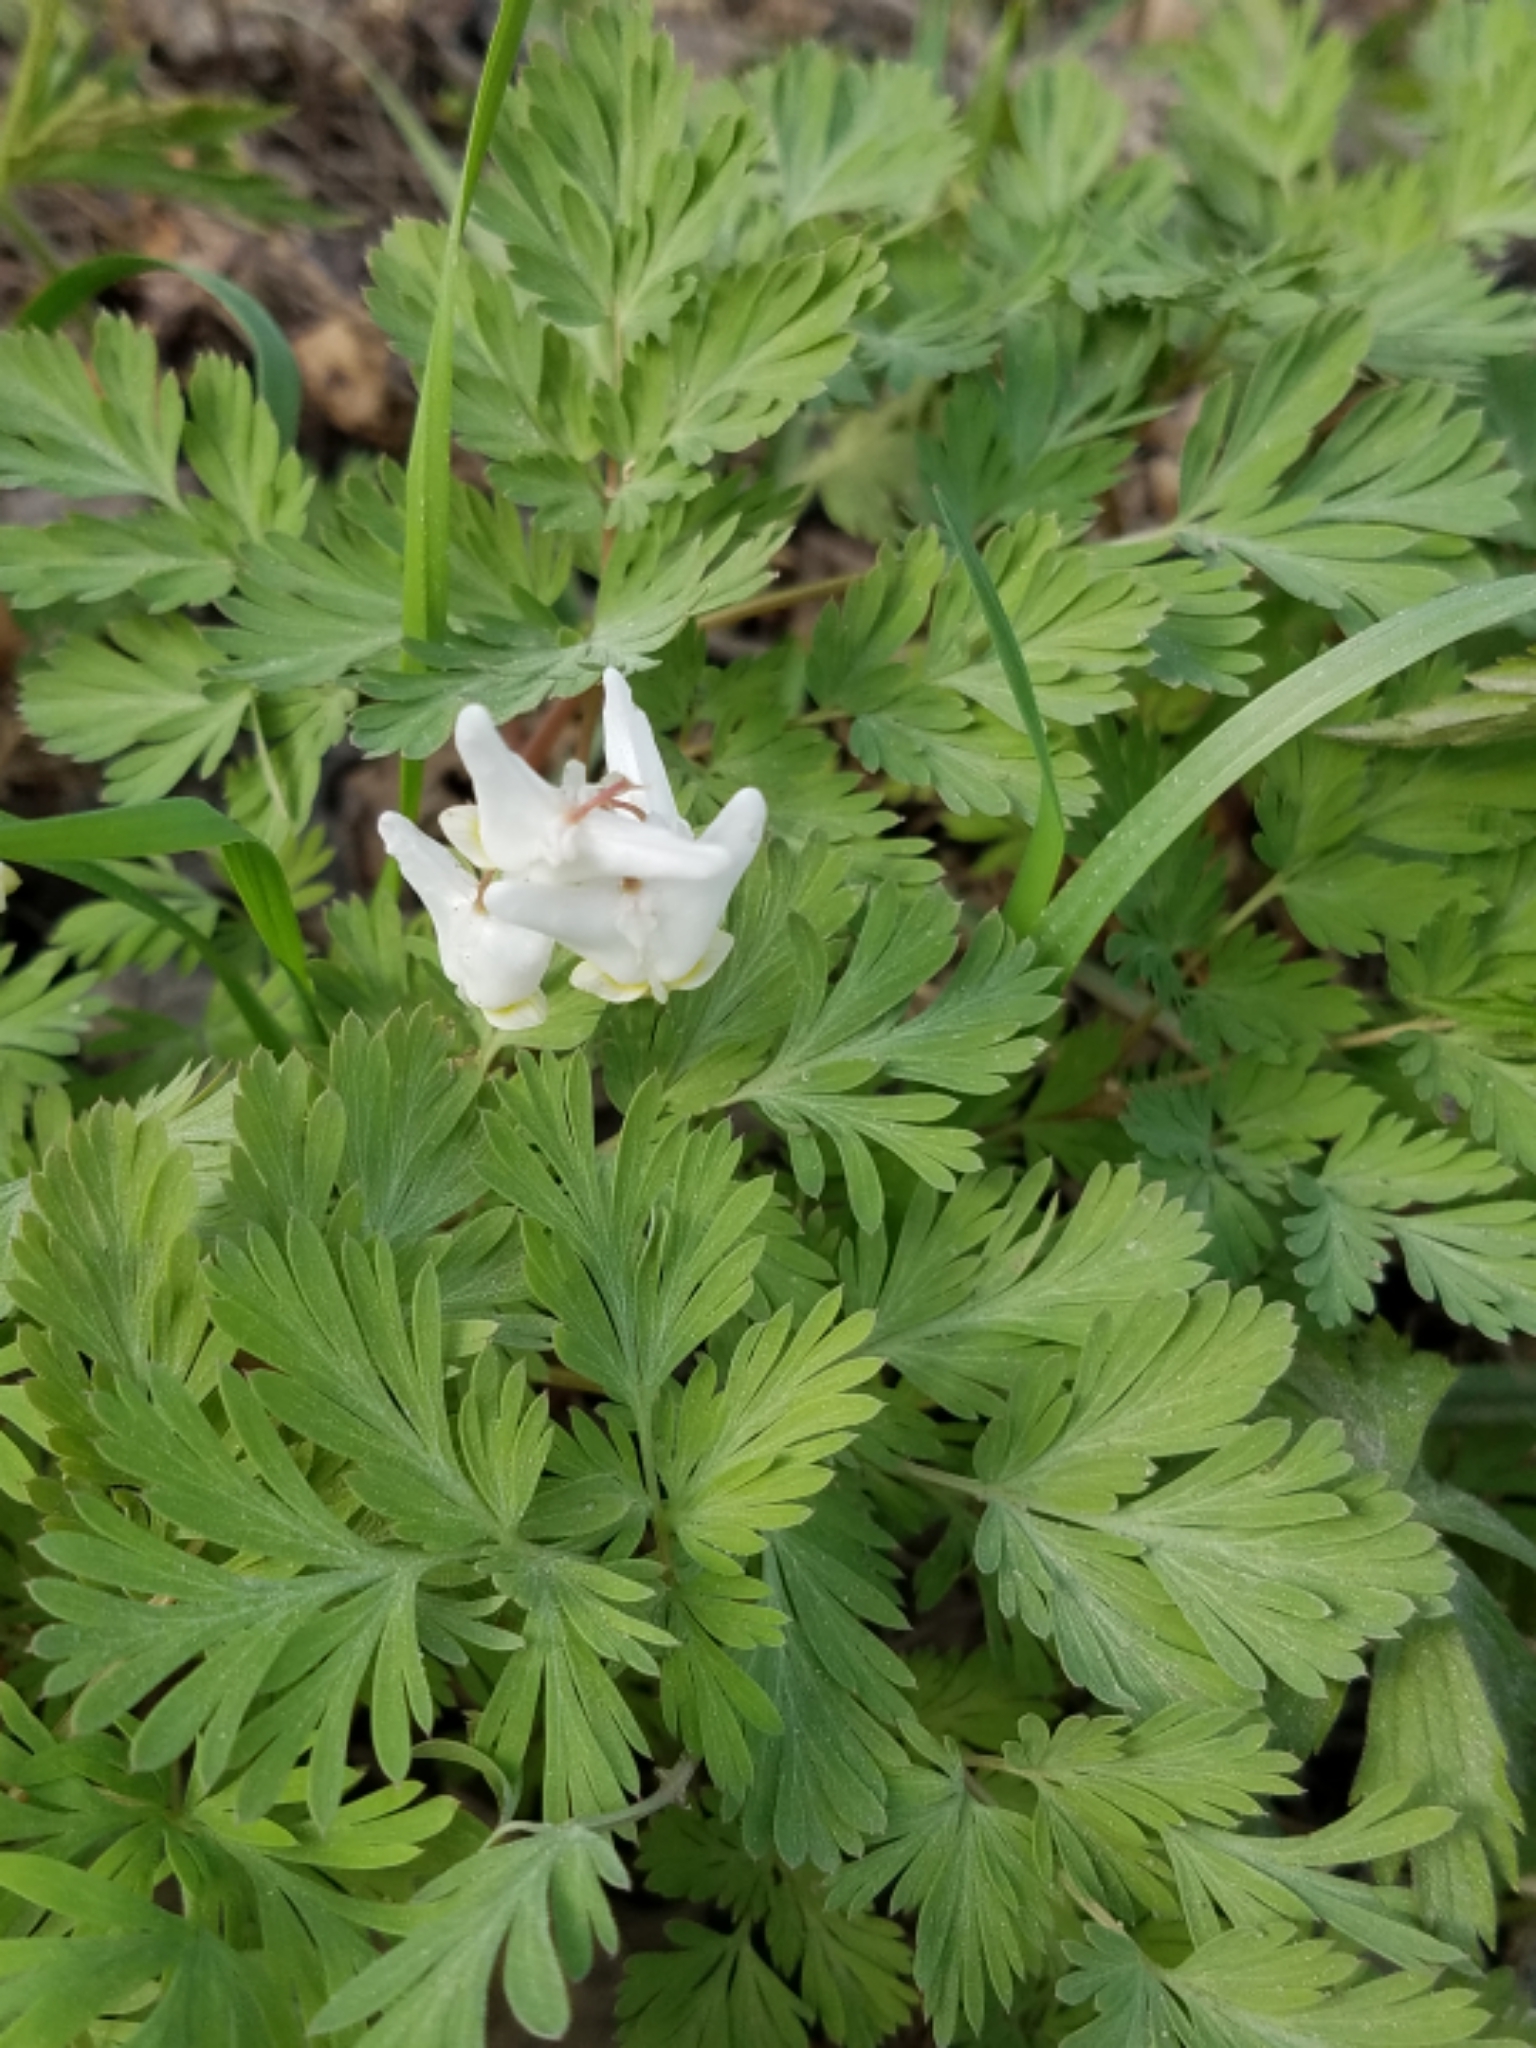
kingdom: Plantae
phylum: Tracheophyta
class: Magnoliopsida
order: Ranunculales
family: Papaveraceae
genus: Dicentra
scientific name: Dicentra cucullaria
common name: Dutchman's breeches
